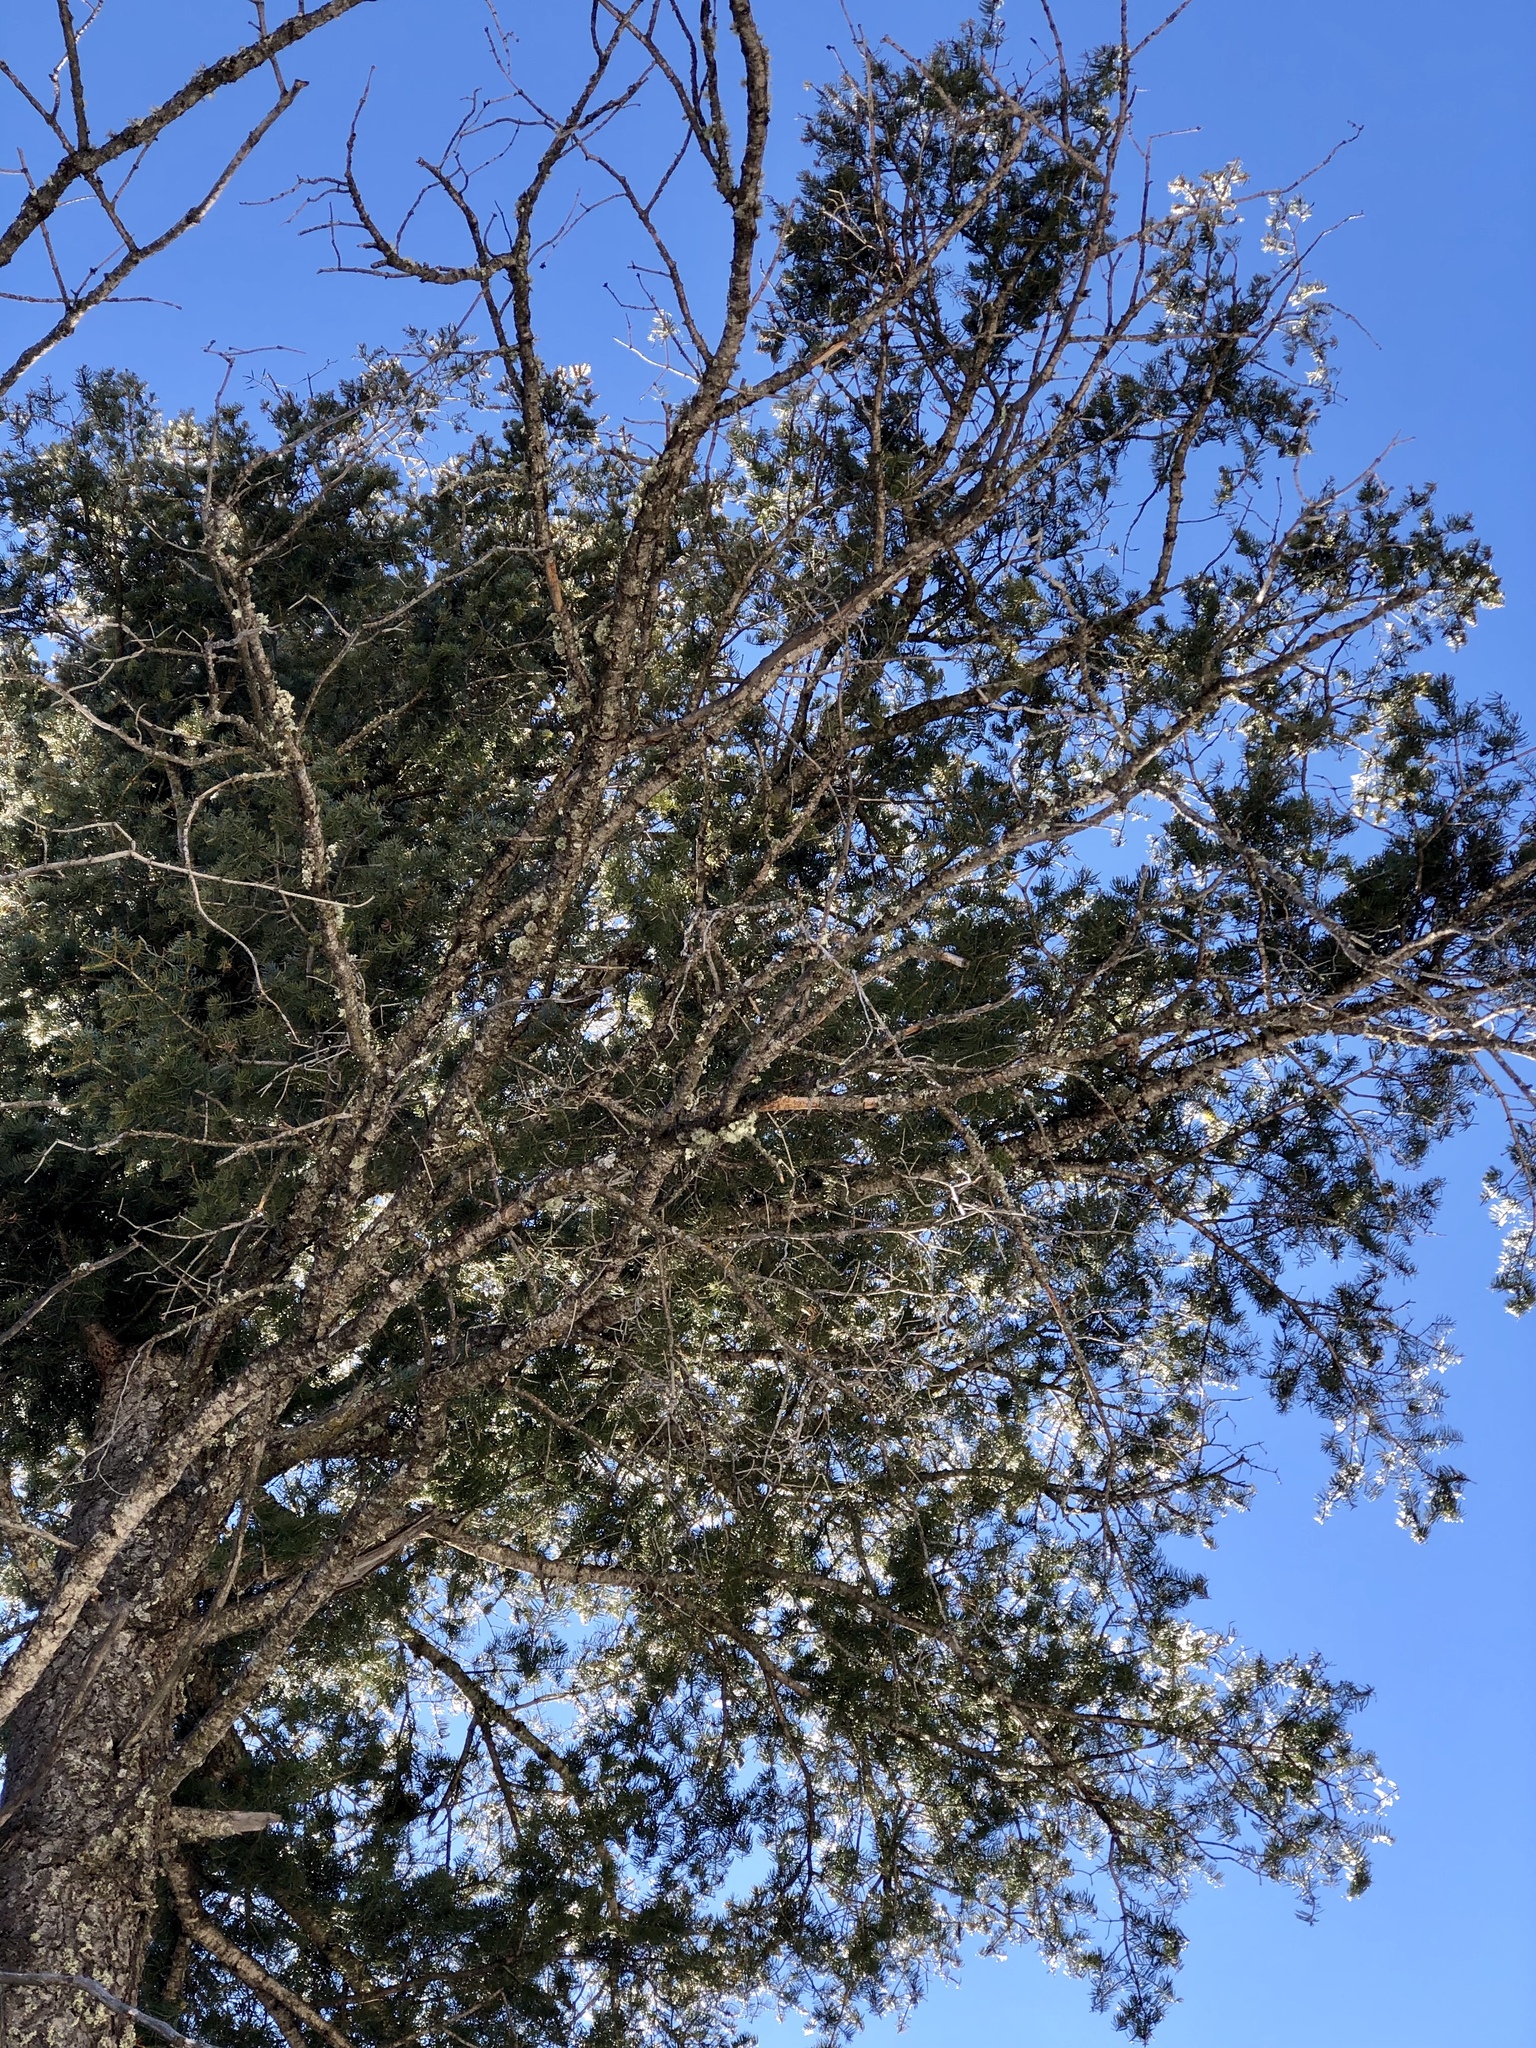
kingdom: Plantae
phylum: Tracheophyta
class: Pinopsida
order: Pinales
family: Pinaceae
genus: Abies
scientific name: Abies concolor
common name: Colorado fir
